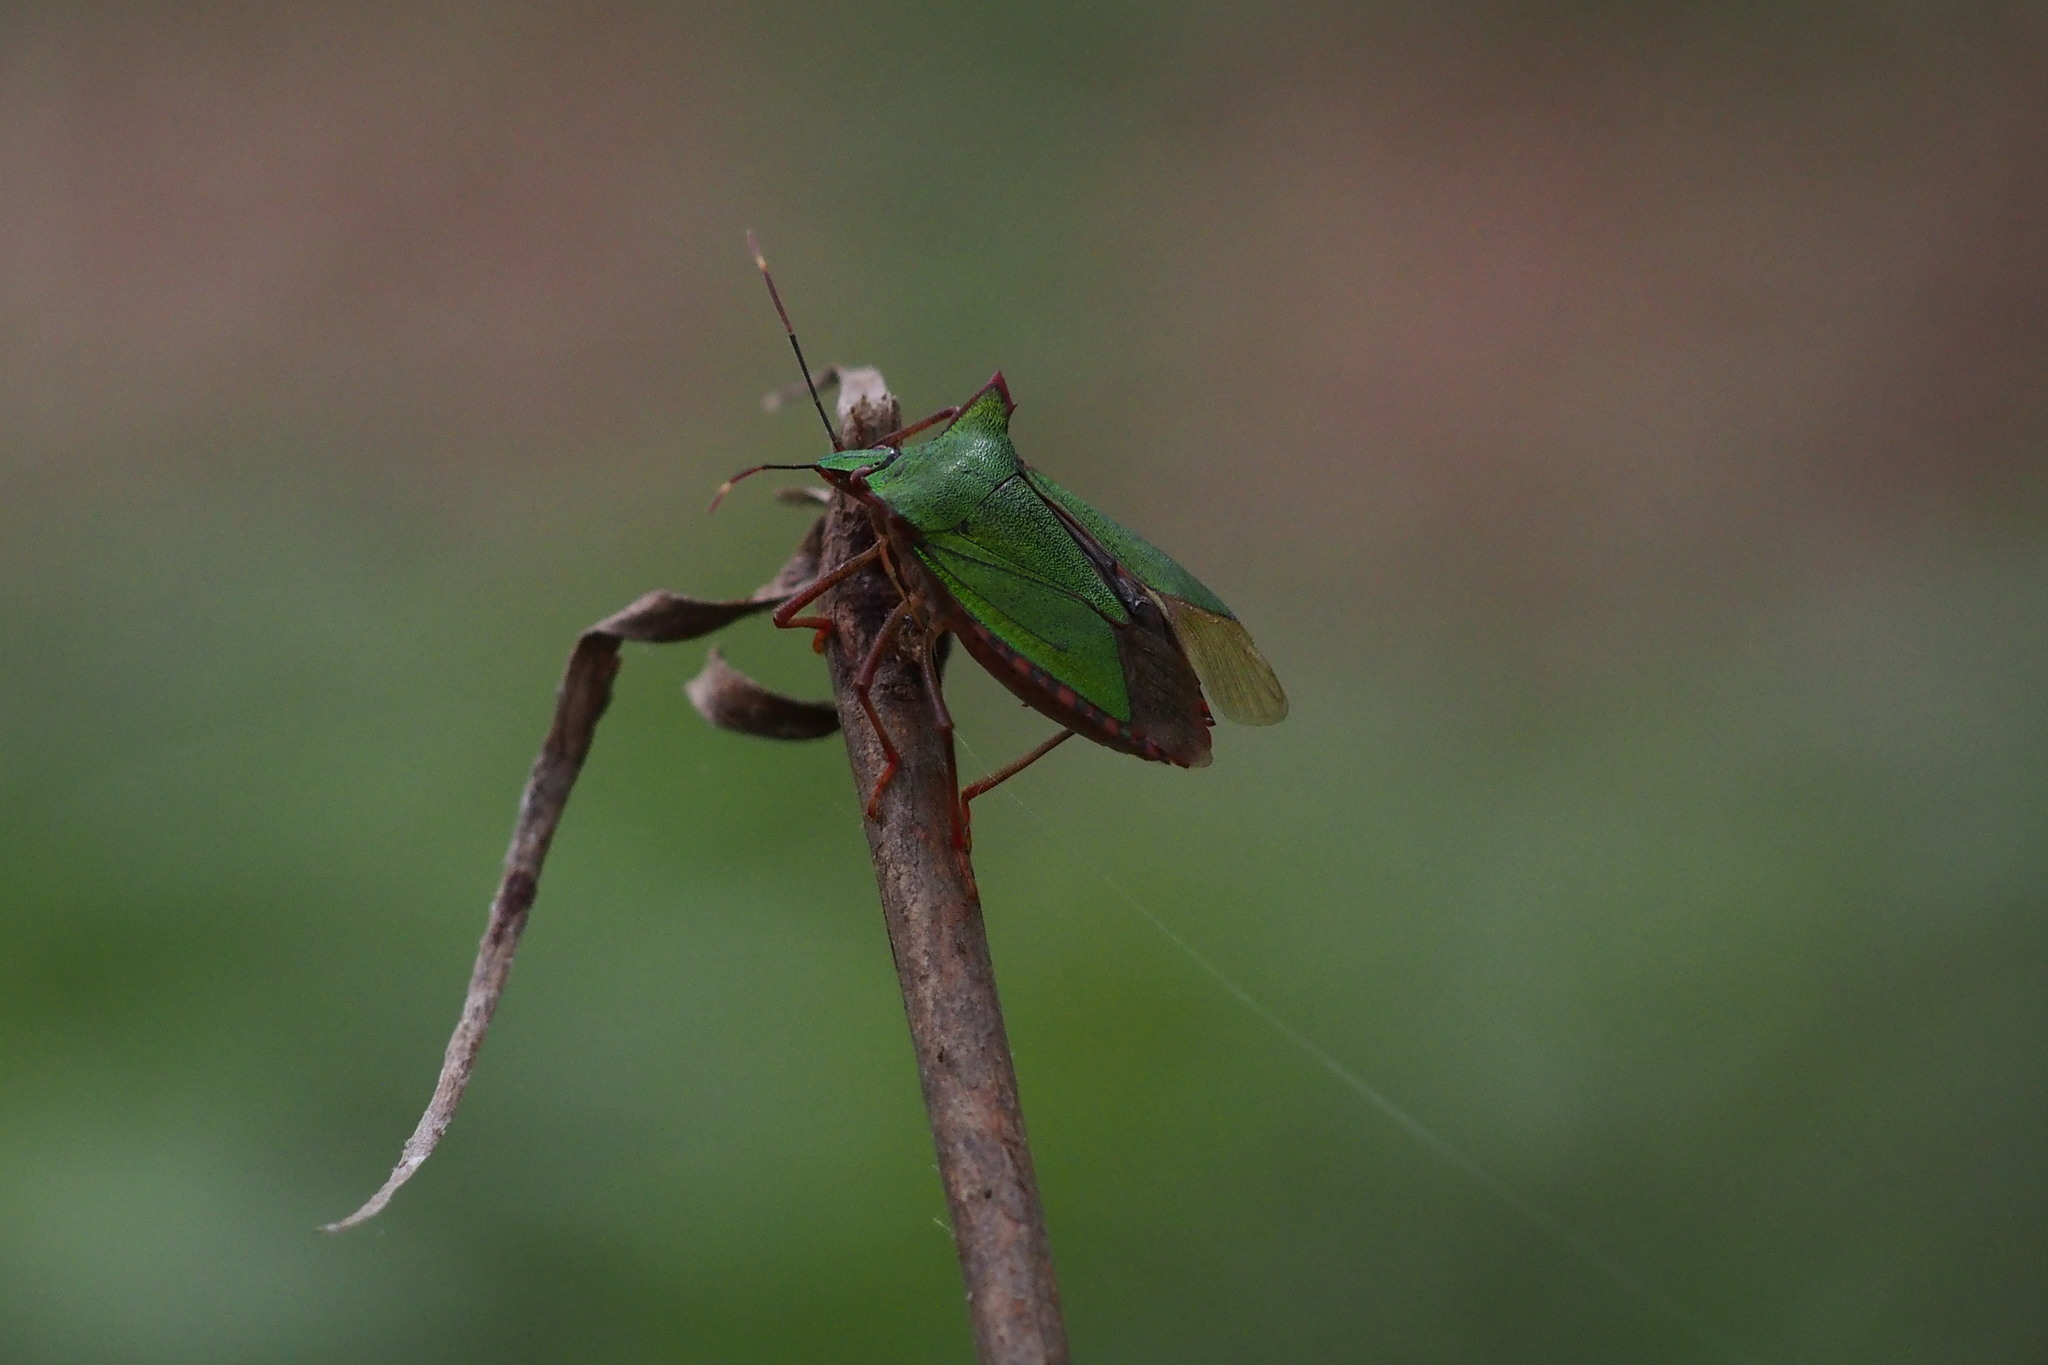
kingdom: Animalia
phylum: Arthropoda
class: Insecta
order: Hemiptera
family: Pentatomidae
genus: Pentatoma
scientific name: Pentatoma japonica
